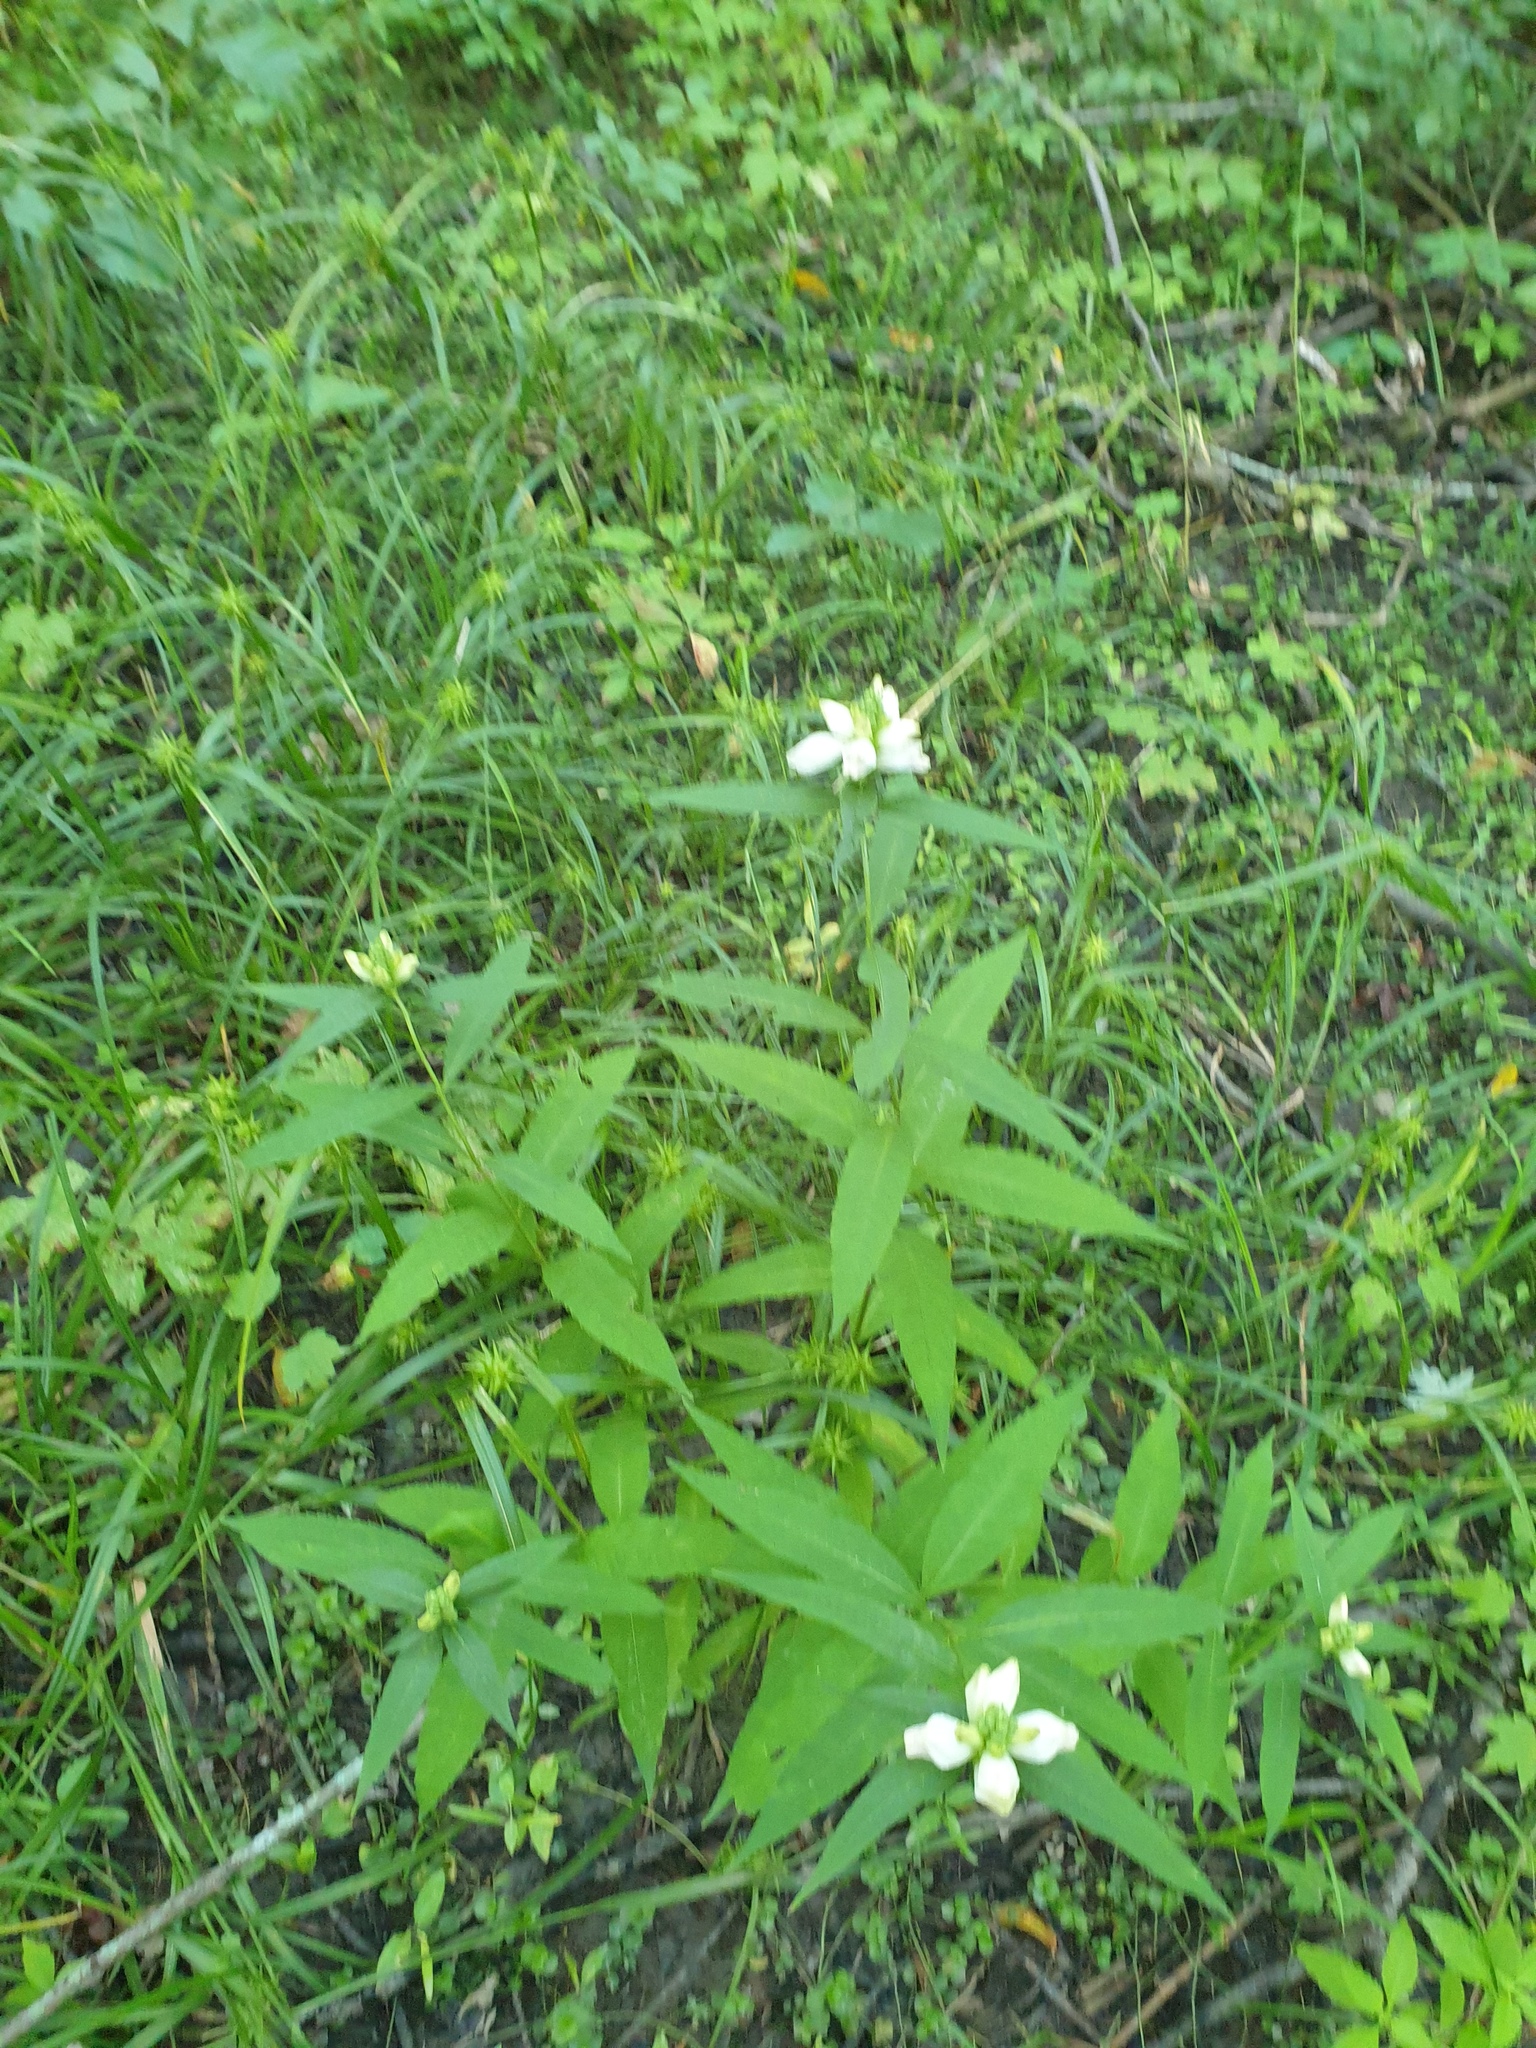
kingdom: Plantae
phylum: Tracheophyta
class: Magnoliopsida
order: Lamiales
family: Plantaginaceae
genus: Chelone
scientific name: Chelone glabra
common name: Snakehead
